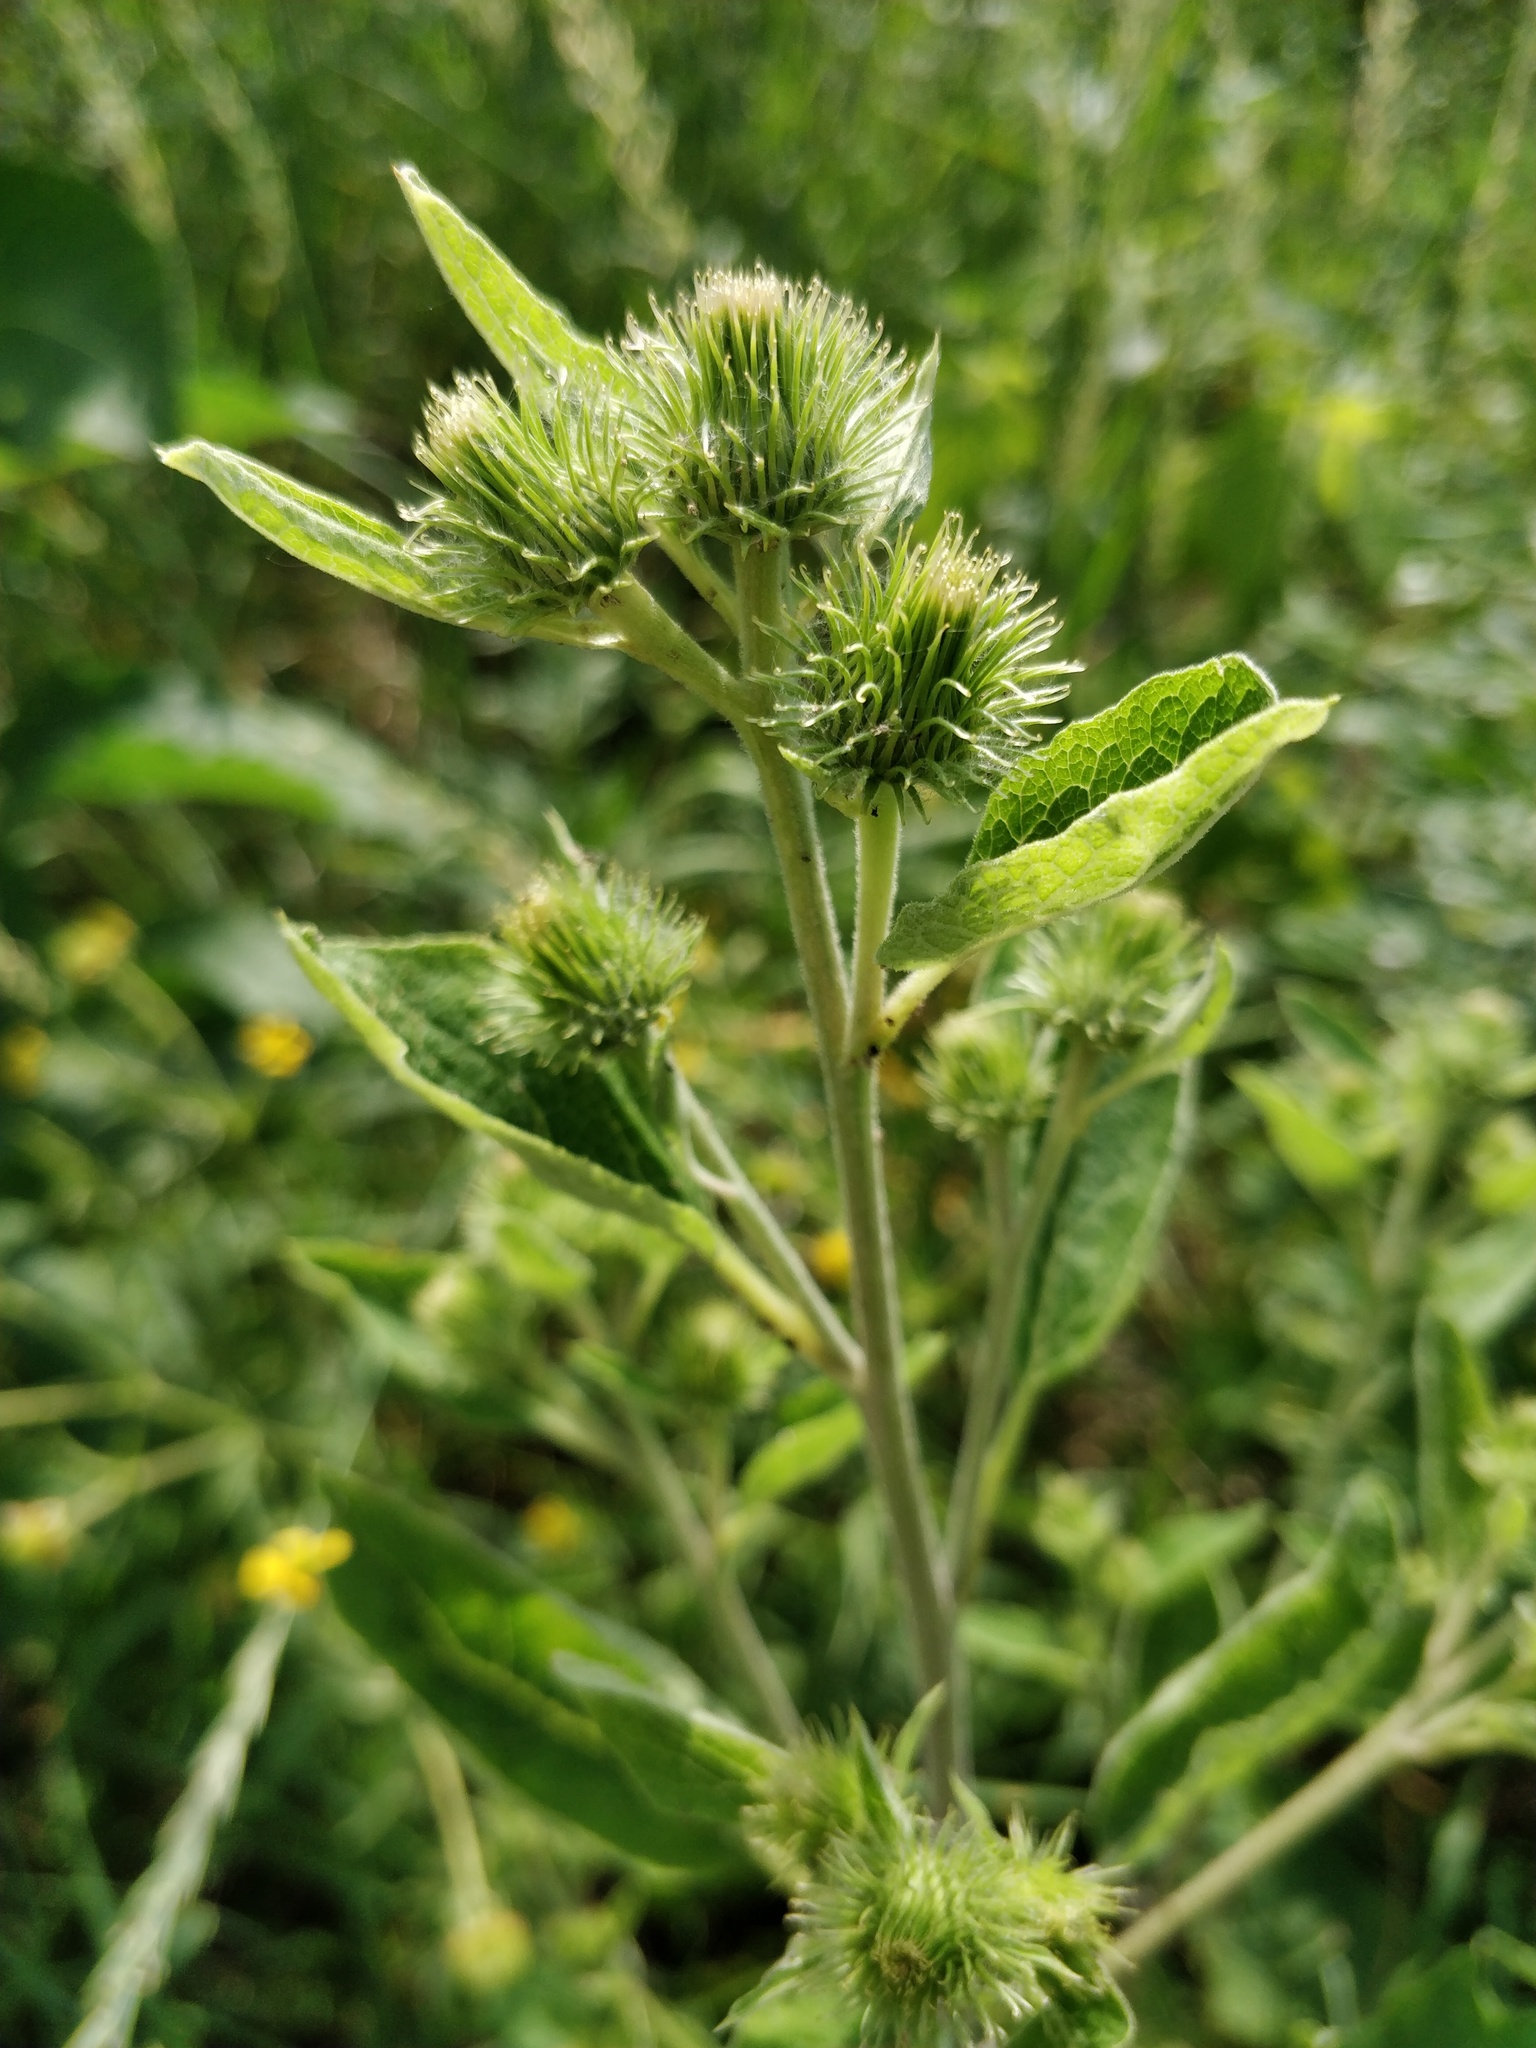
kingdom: Plantae
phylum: Tracheophyta
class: Magnoliopsida
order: Asterales
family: Asteraceae
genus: Arctium
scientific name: Arctium minus
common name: Lesser burdock
